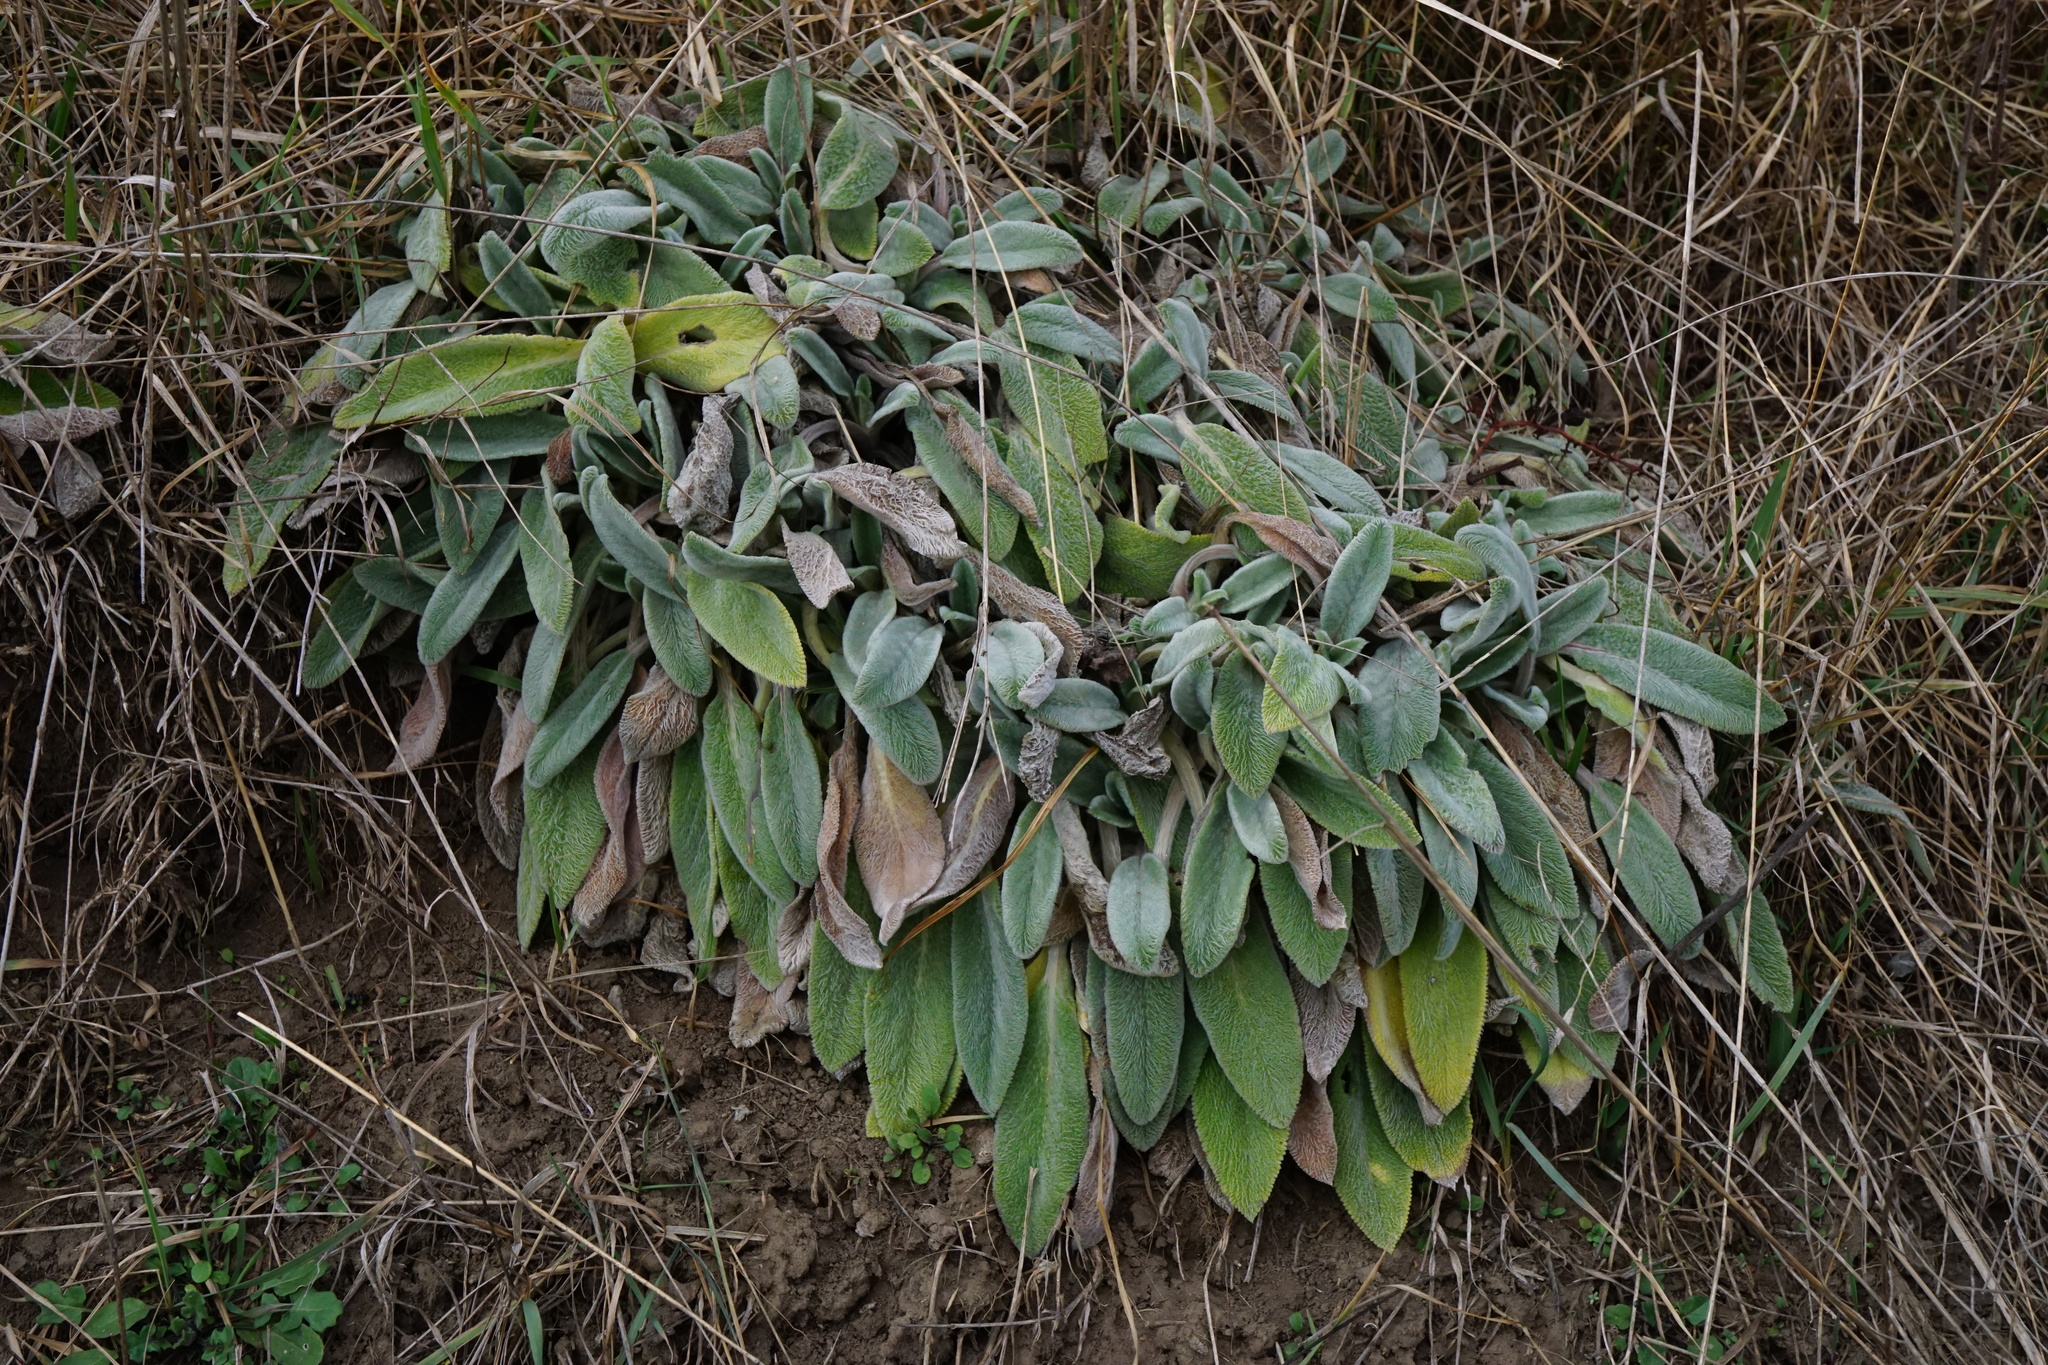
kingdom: Plantae
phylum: Tracheophyta
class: Magnoliopsida
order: Lamiales
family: Lamiaceae
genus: Stachys
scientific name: Stachys byzantina
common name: Lamb's-ear
